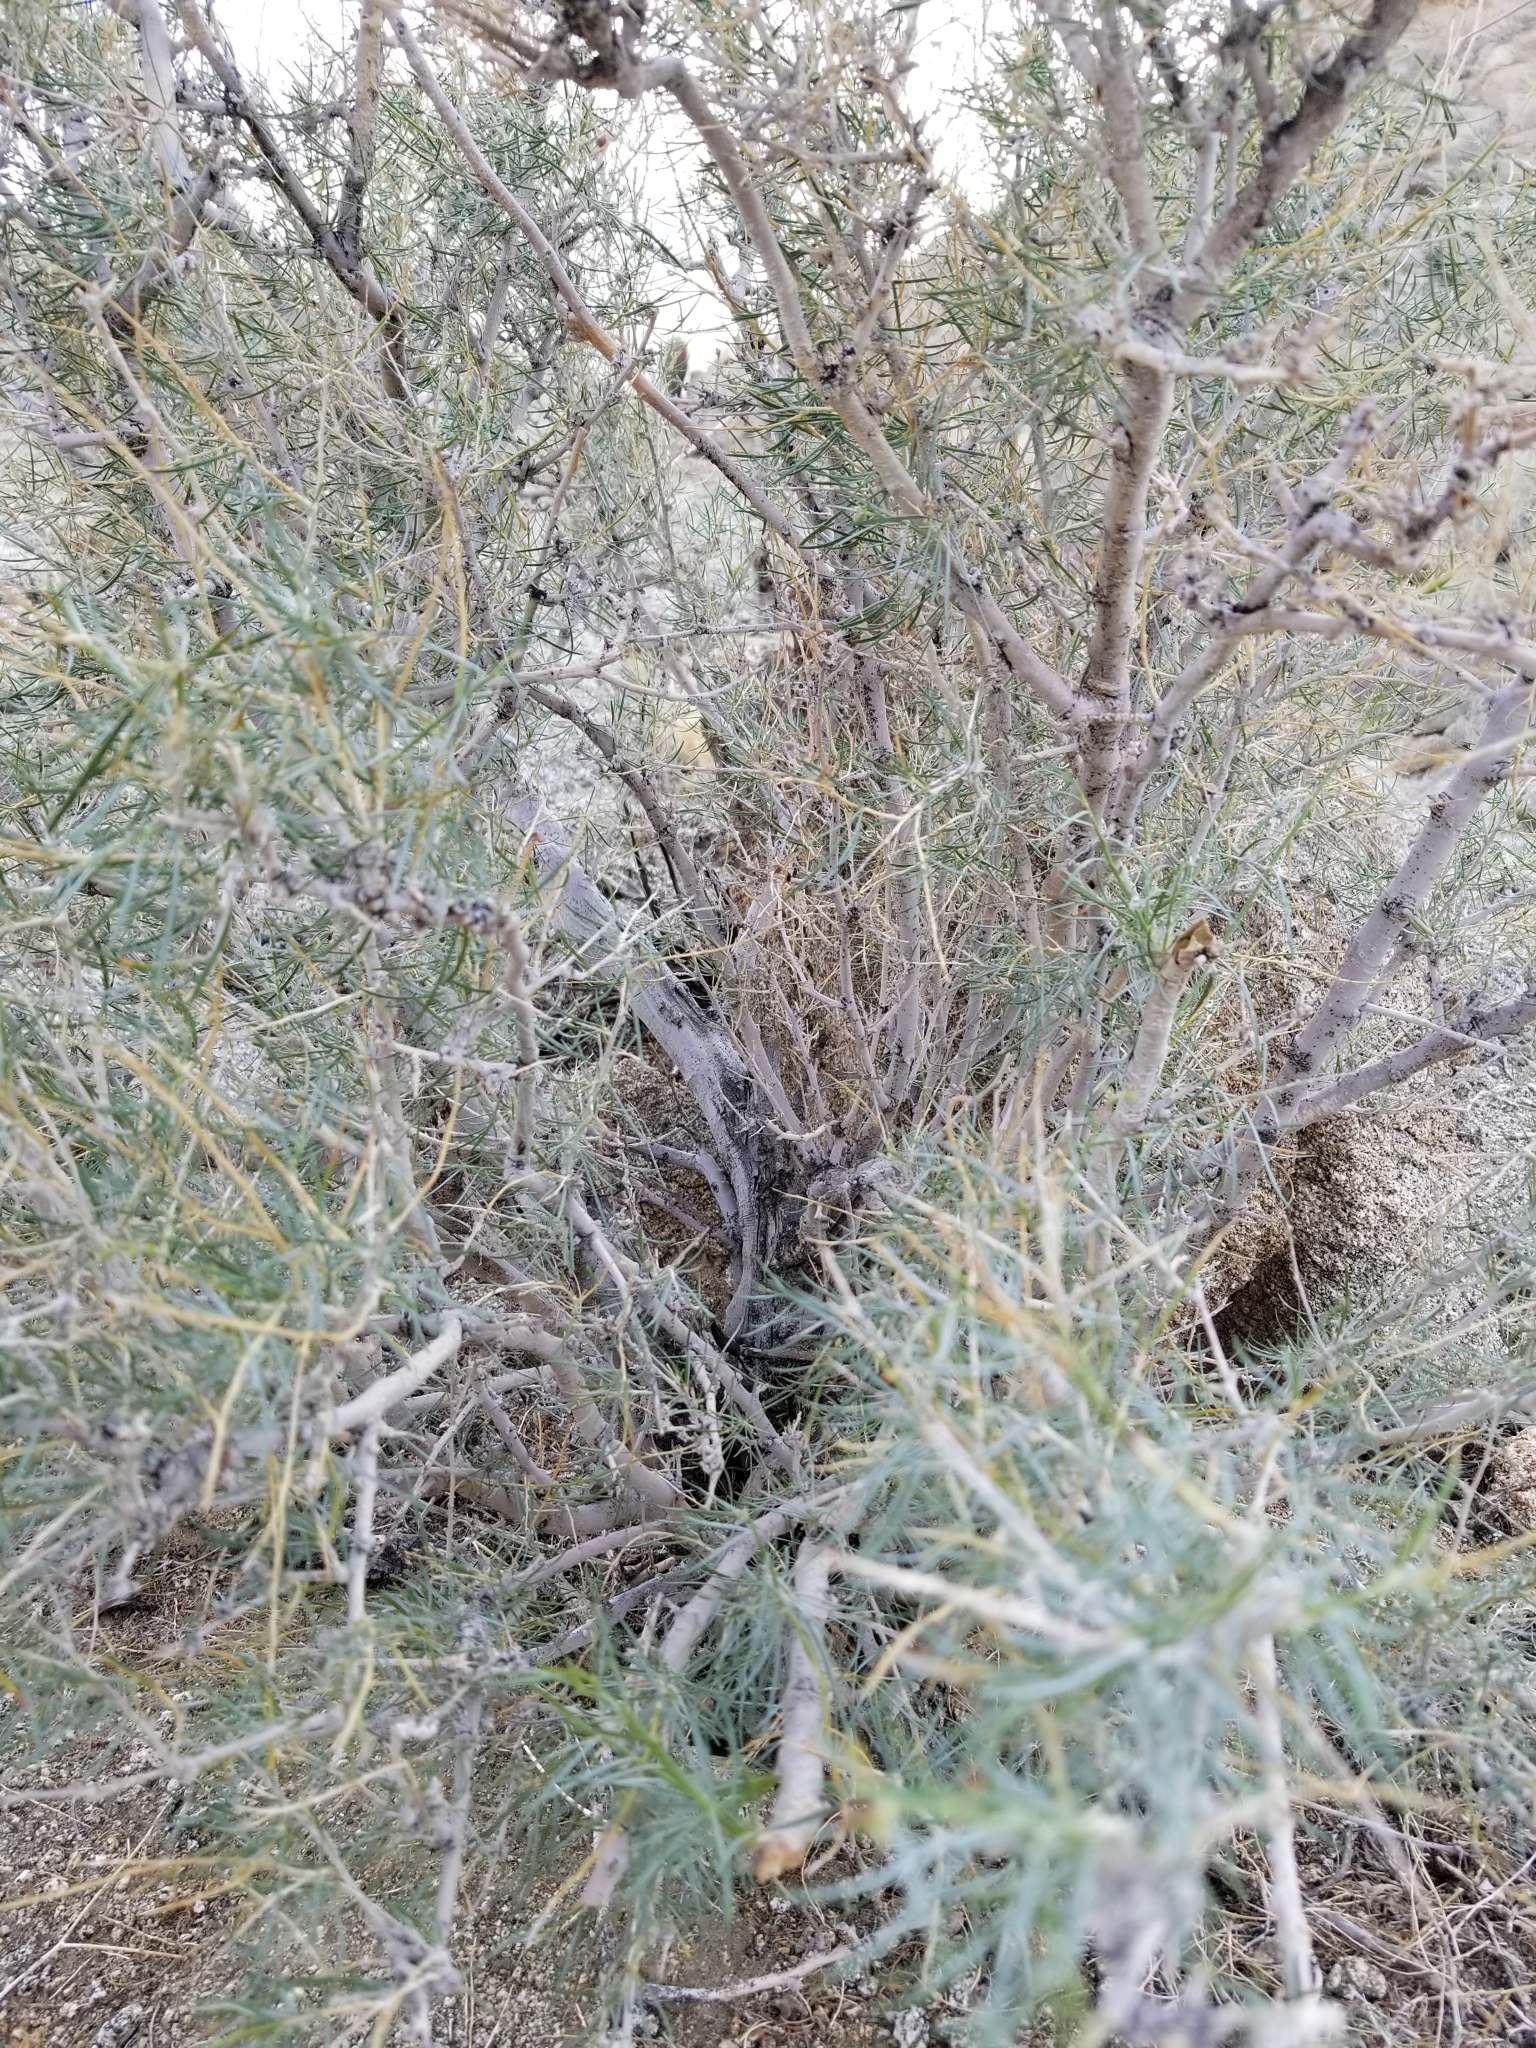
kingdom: Plantae
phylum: Tracheophyta
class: Magnoliopsida
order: Fabales
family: Fabaceae
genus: Psorothamnus
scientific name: Psorothamnus schottii
